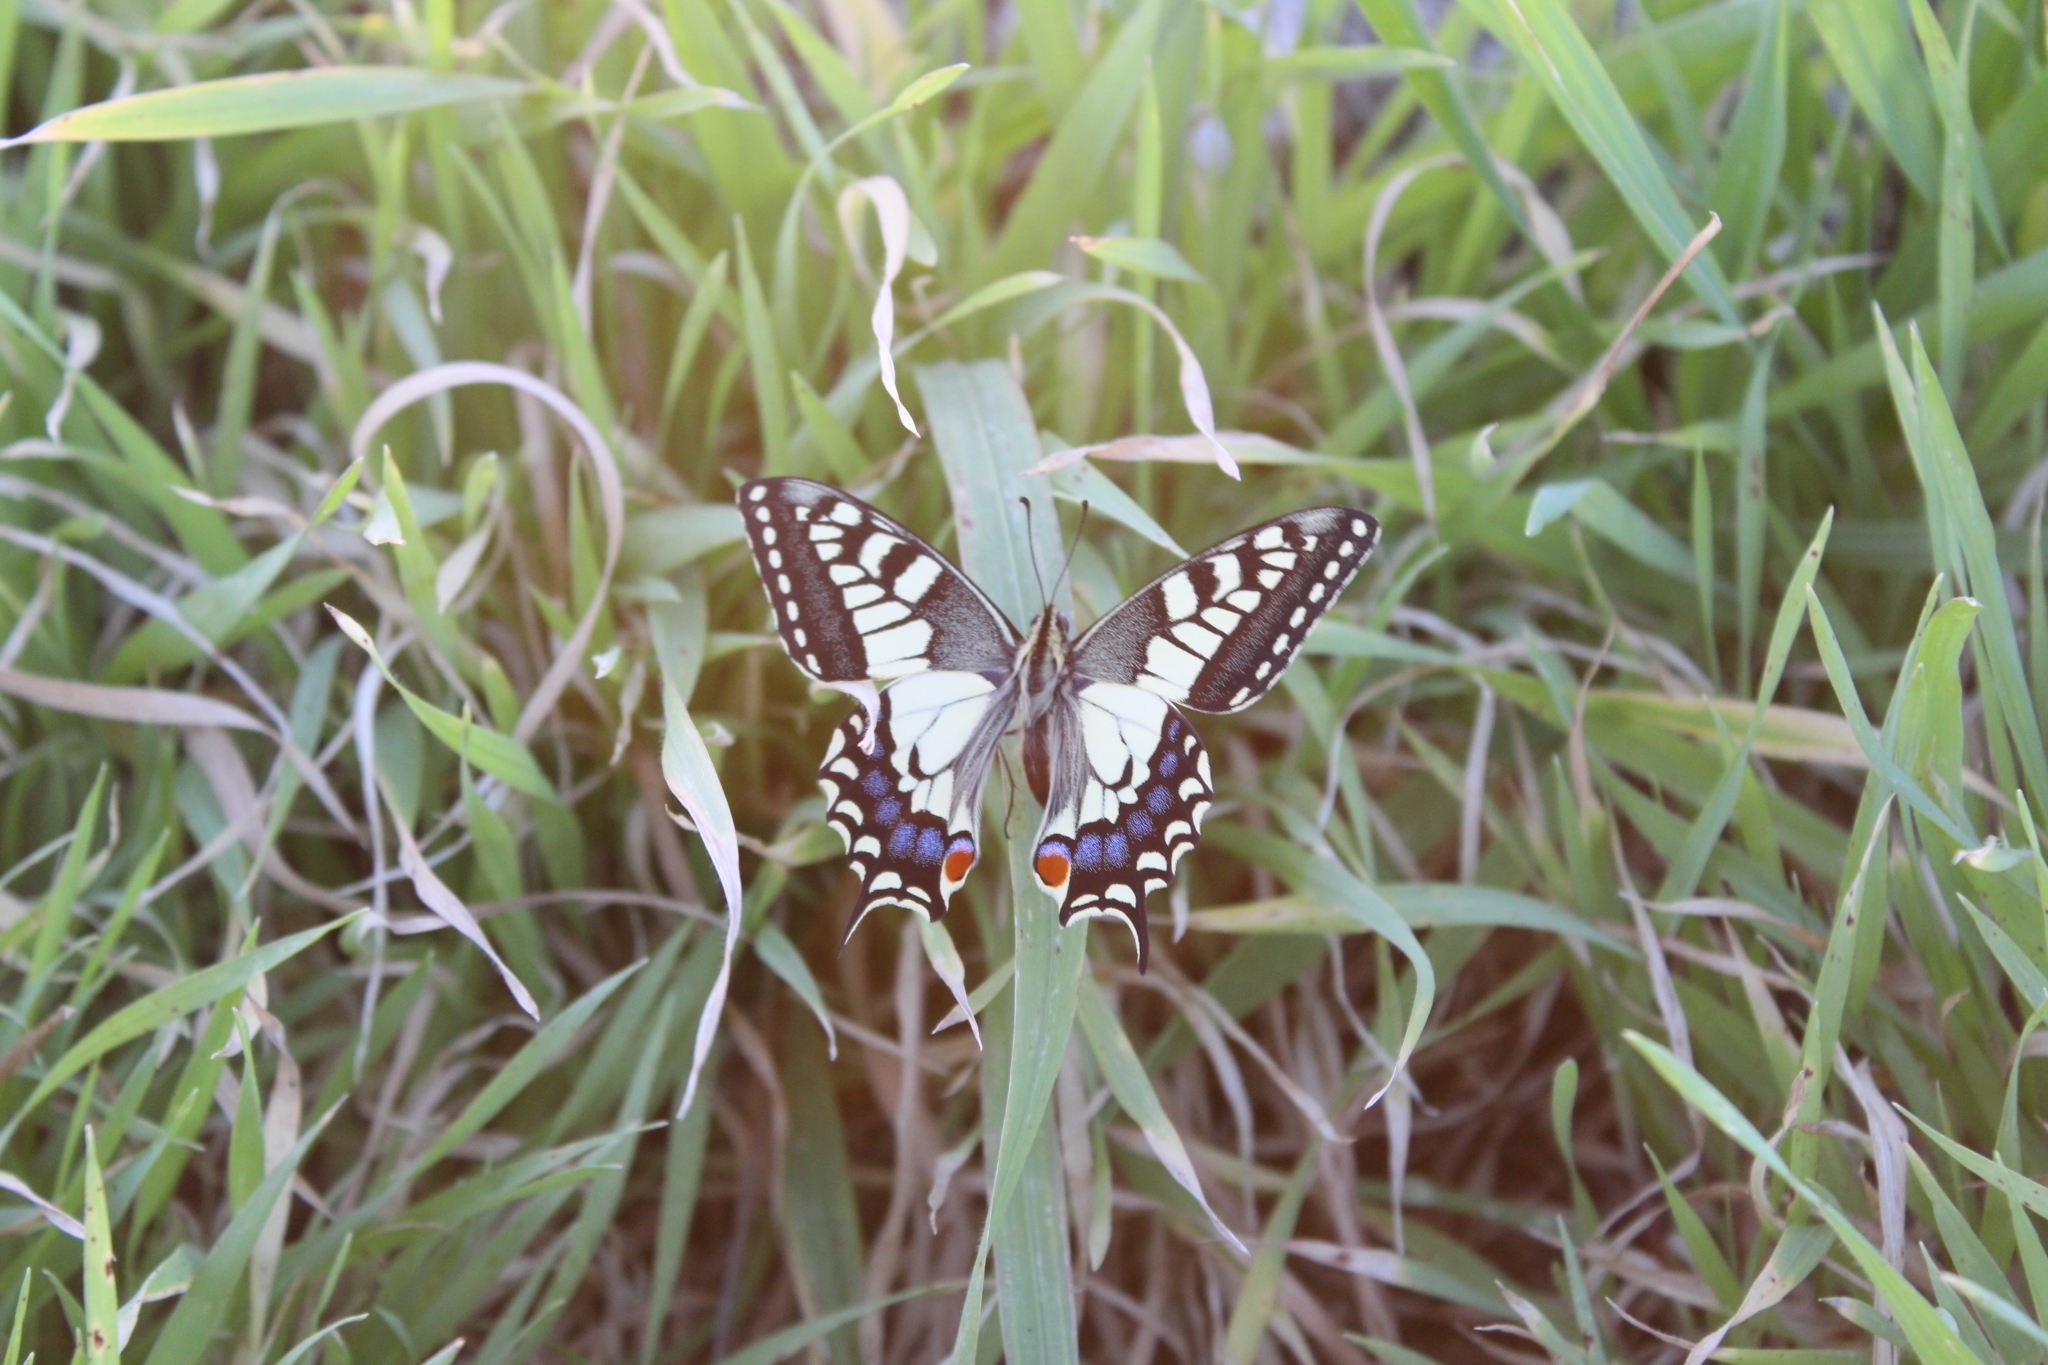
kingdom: Animalia
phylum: Arthropoda
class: Insecta
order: Lepidoptera
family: Papilionidae
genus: Papilio
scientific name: Papilio machaon
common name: Swallowtail
